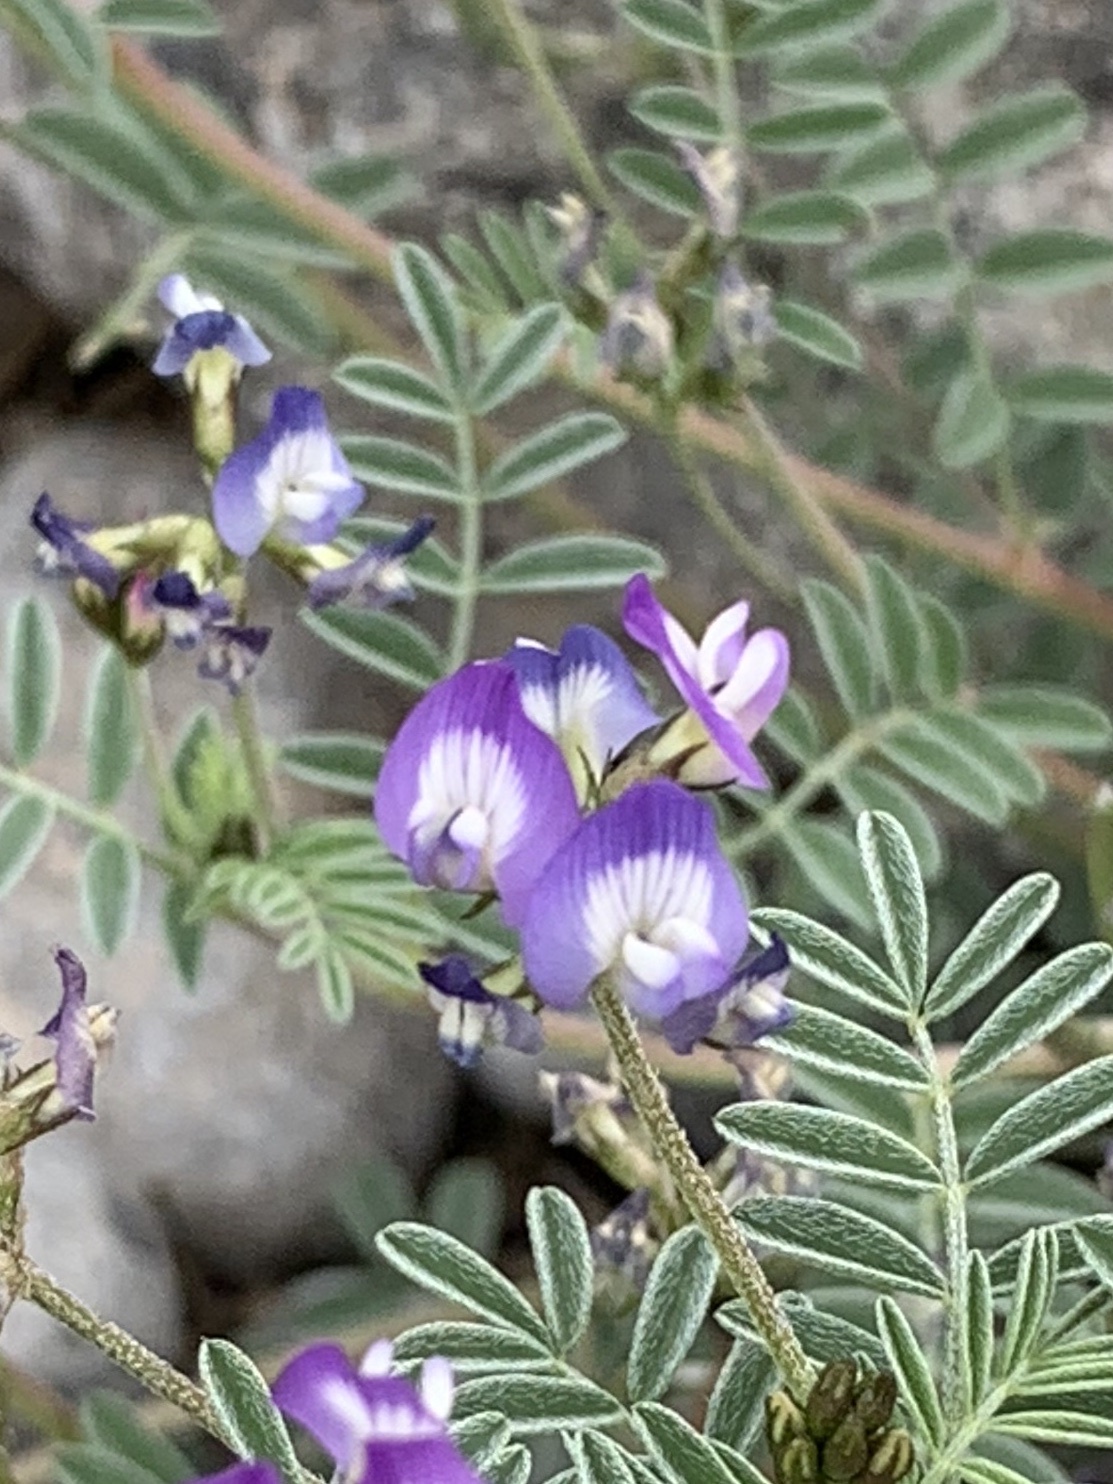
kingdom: Plantae
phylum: Tracheophyta
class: Magnoliopsida
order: Fabales
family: Fabaceae
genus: Astragalus
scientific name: Astragalus emoryanus
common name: Emory's milk-vetch
